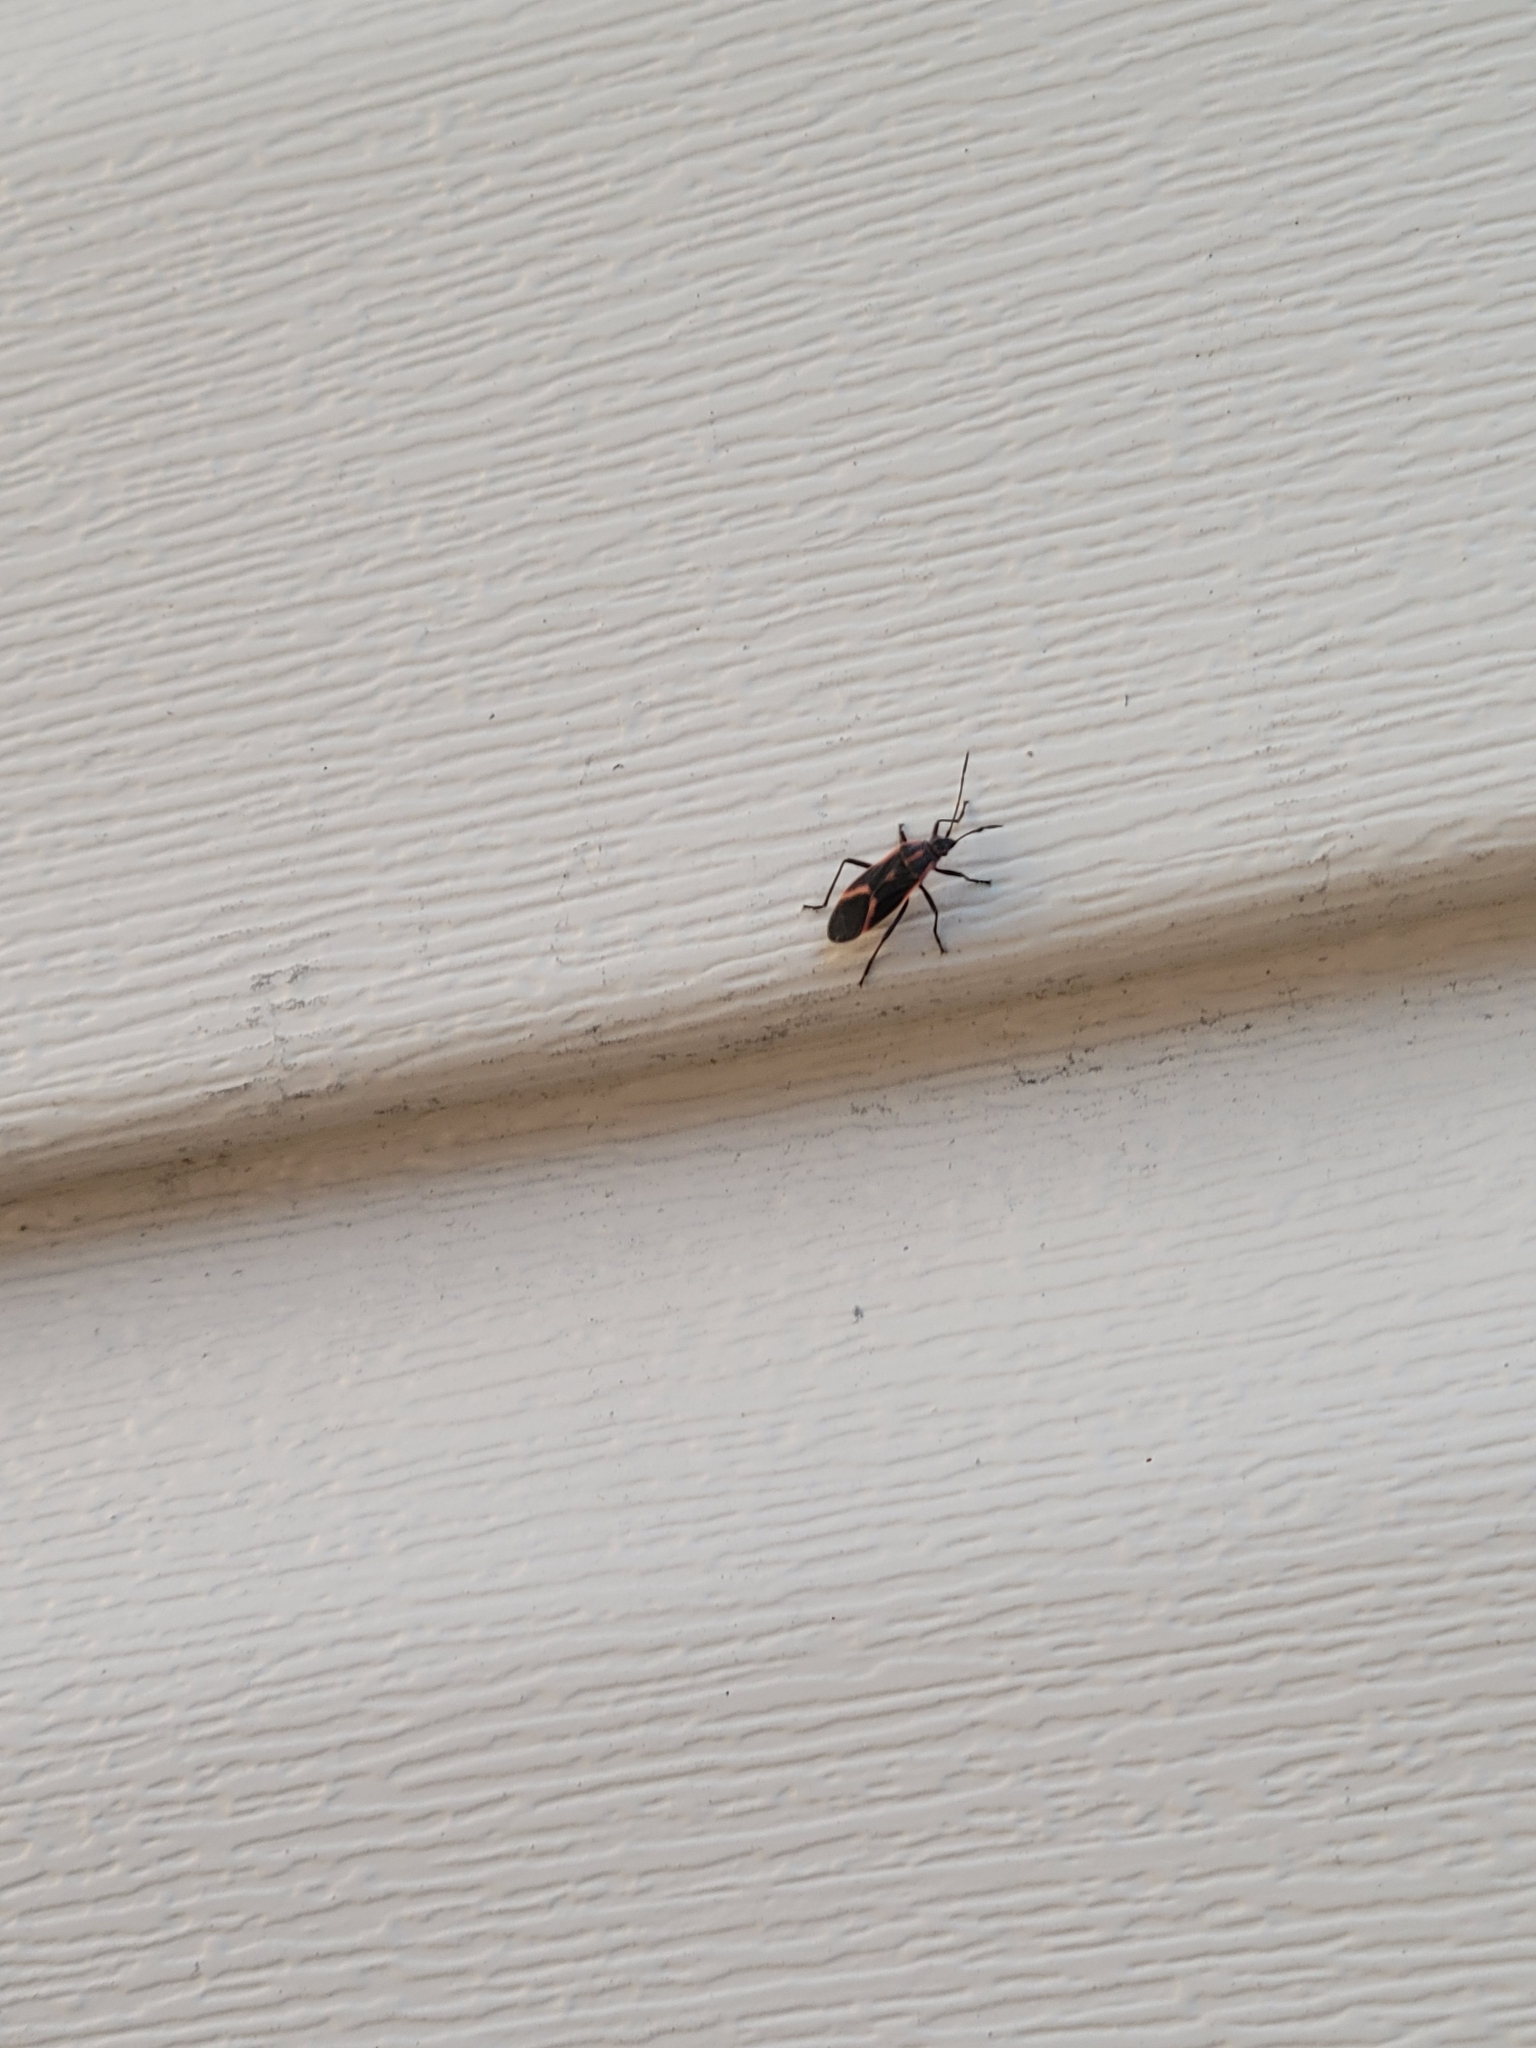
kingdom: Animalia
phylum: Arthropoda
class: Insecta
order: Hemiptera
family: Rhopalidae
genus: Boisea
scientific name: Boisea trivittata
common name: Boxelder bug
